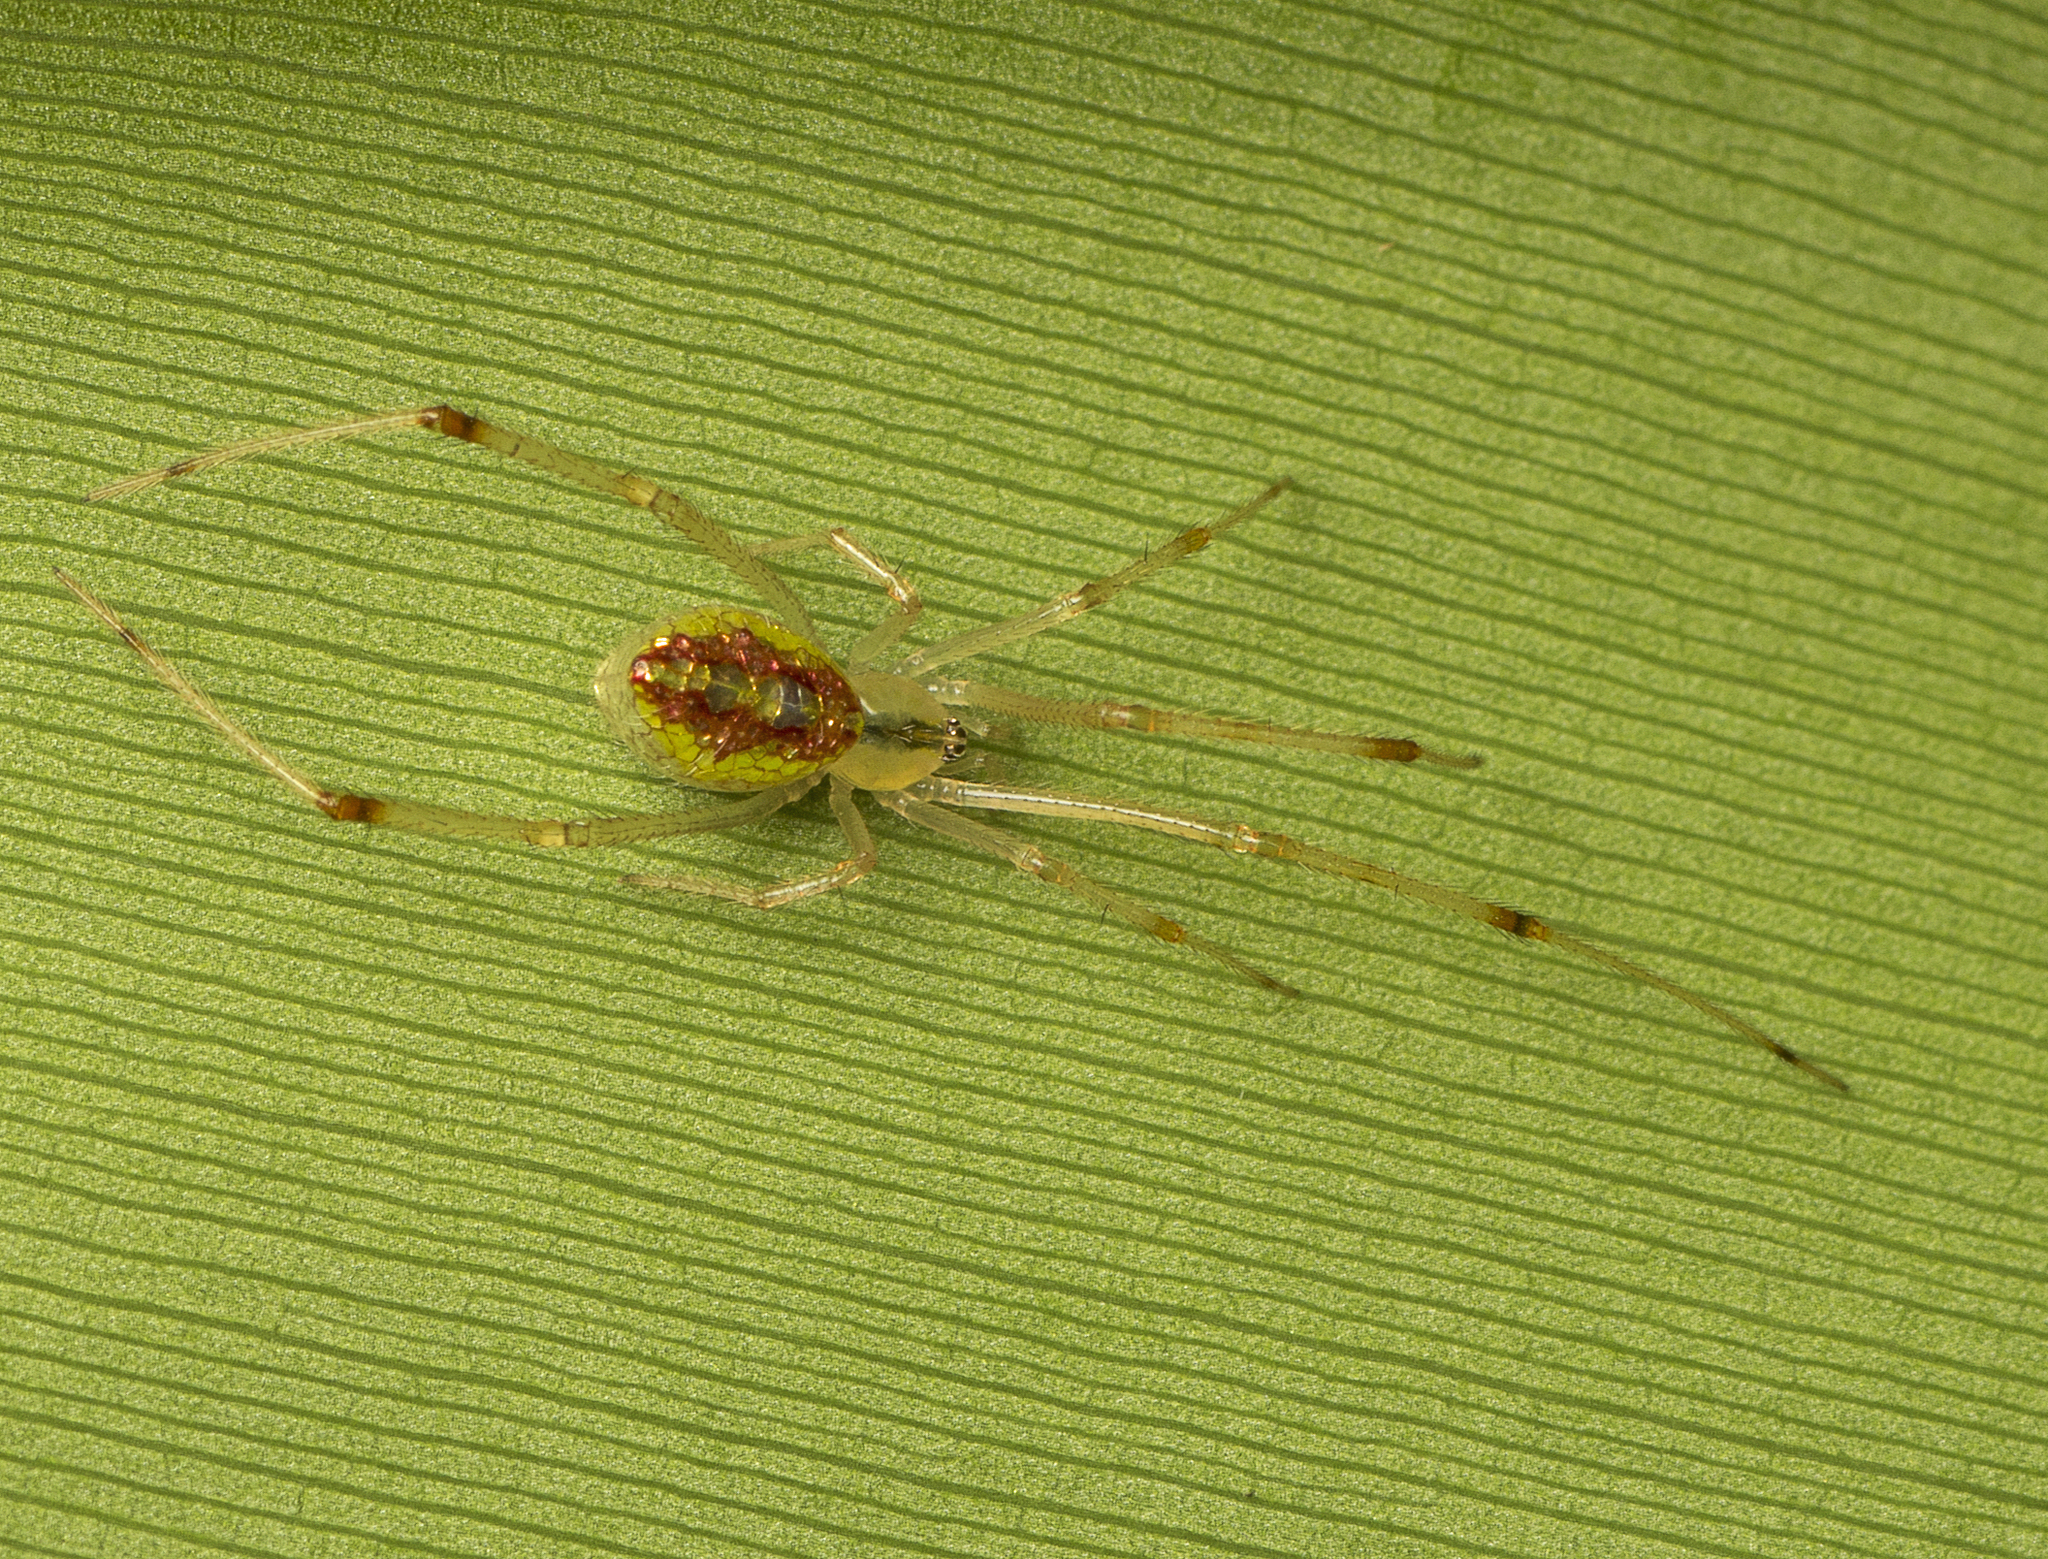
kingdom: Animalia
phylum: Arthropoda
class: Arachnida
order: Araneae
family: Theridiidae
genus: Thwaitesia
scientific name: Thwaitesia nigronodosa
